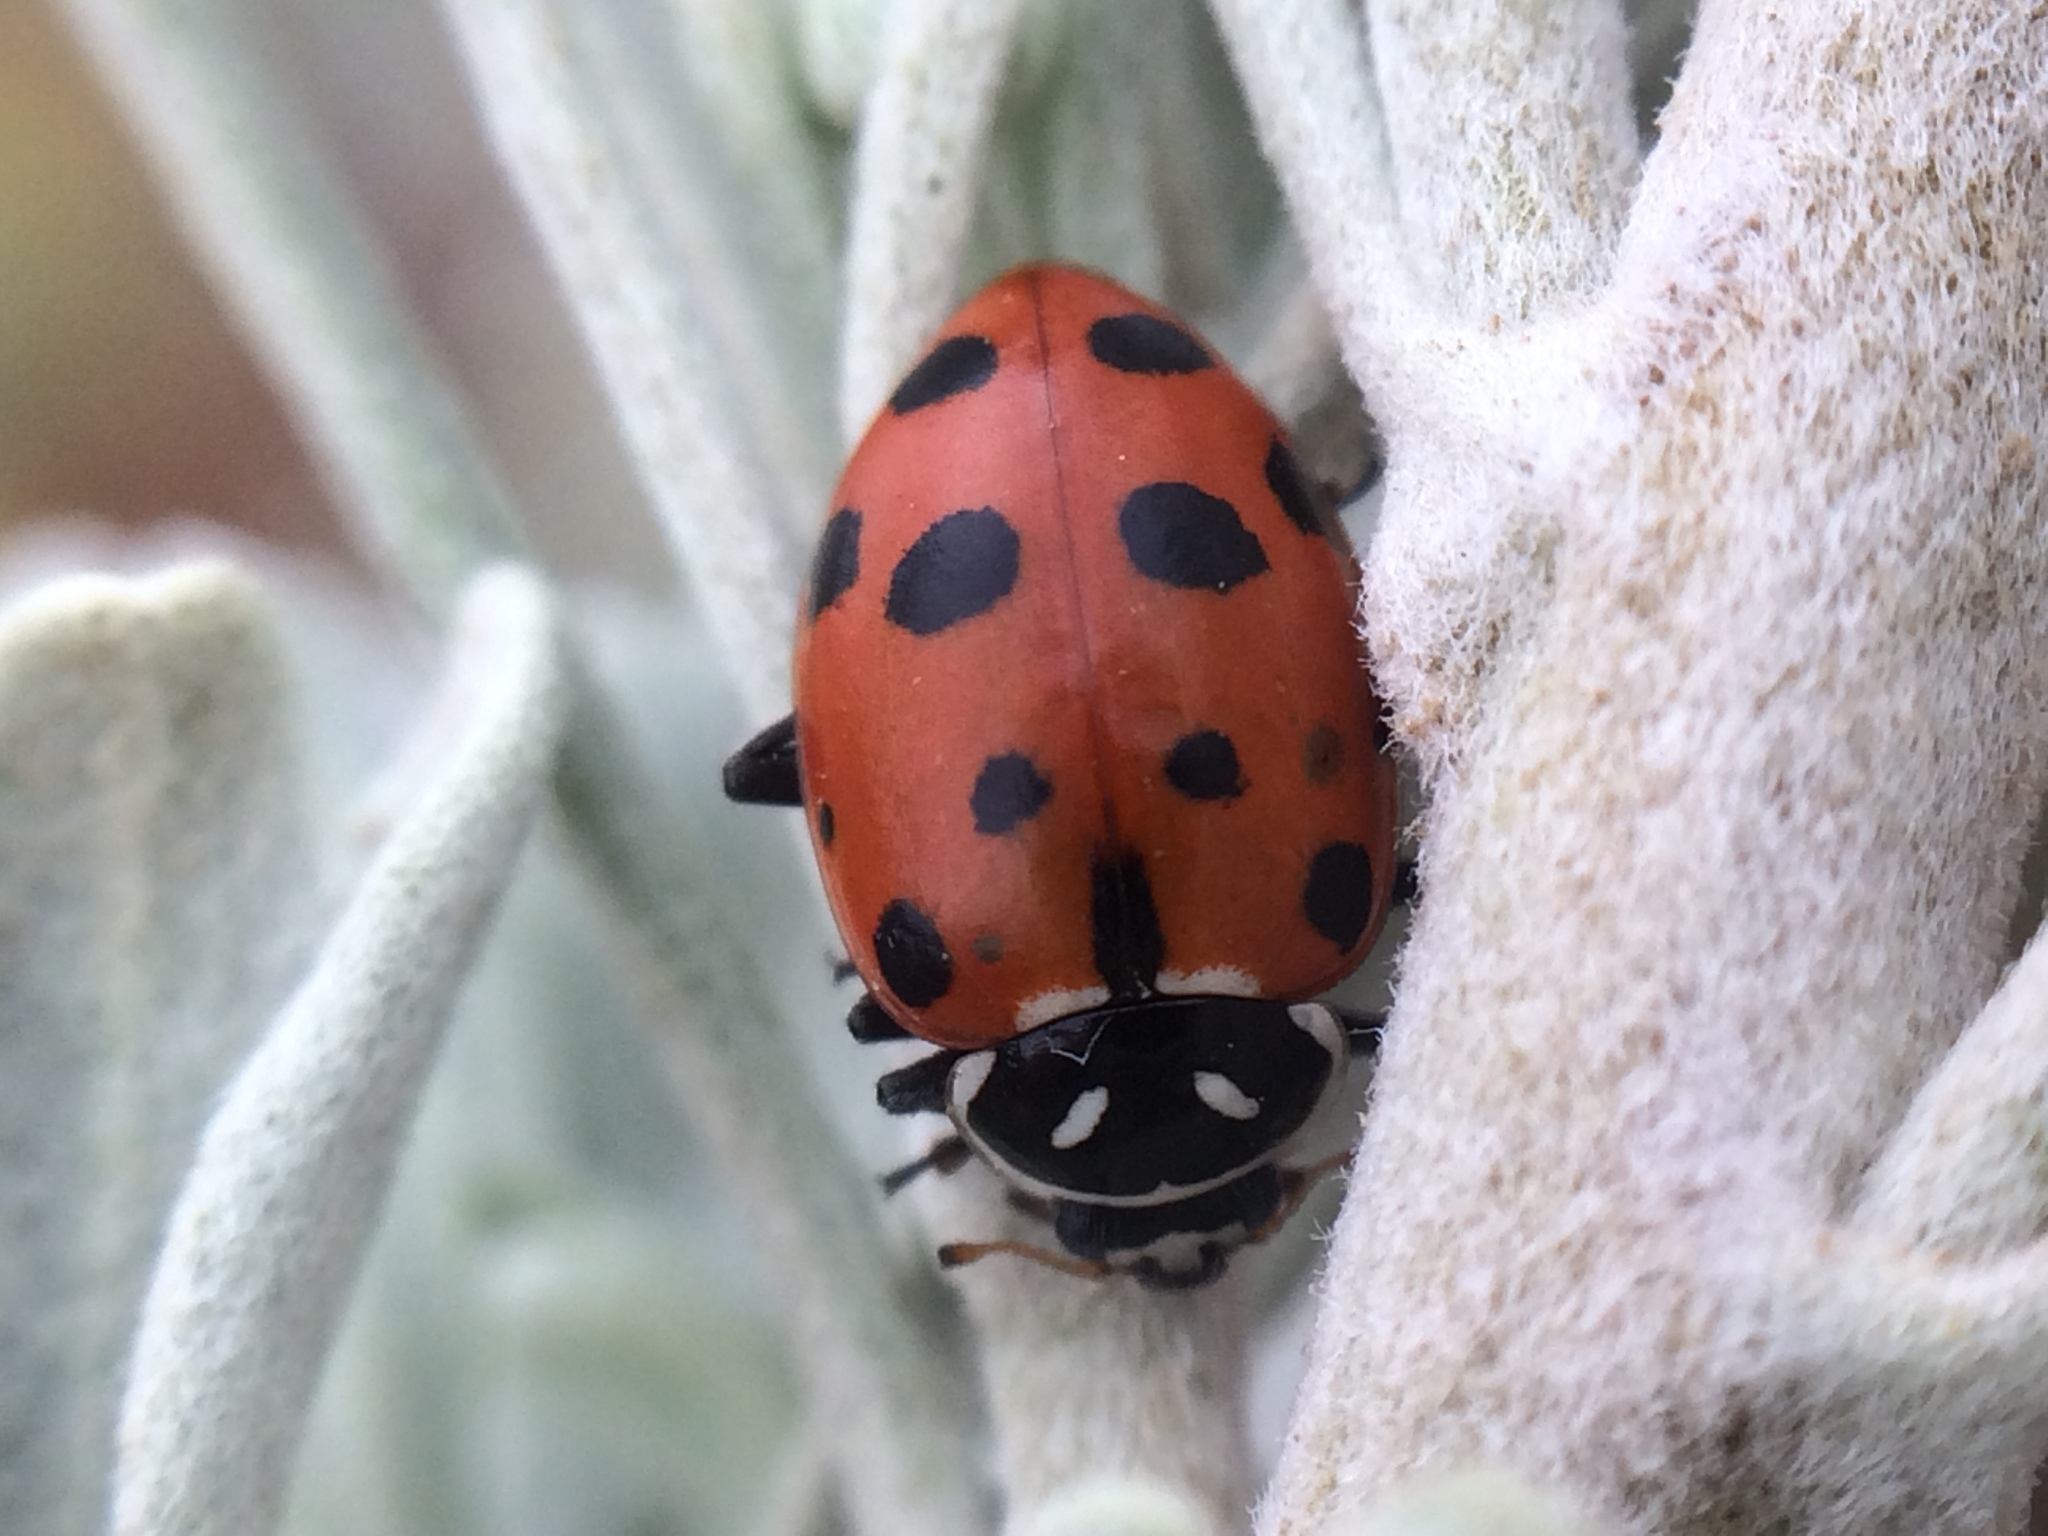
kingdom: Animalia
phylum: Arthropoda
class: Insecta
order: Coleoptera
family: Coccinellidae
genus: Hippodamia
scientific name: Hippodamia convergens
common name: Convergent lady beetle
